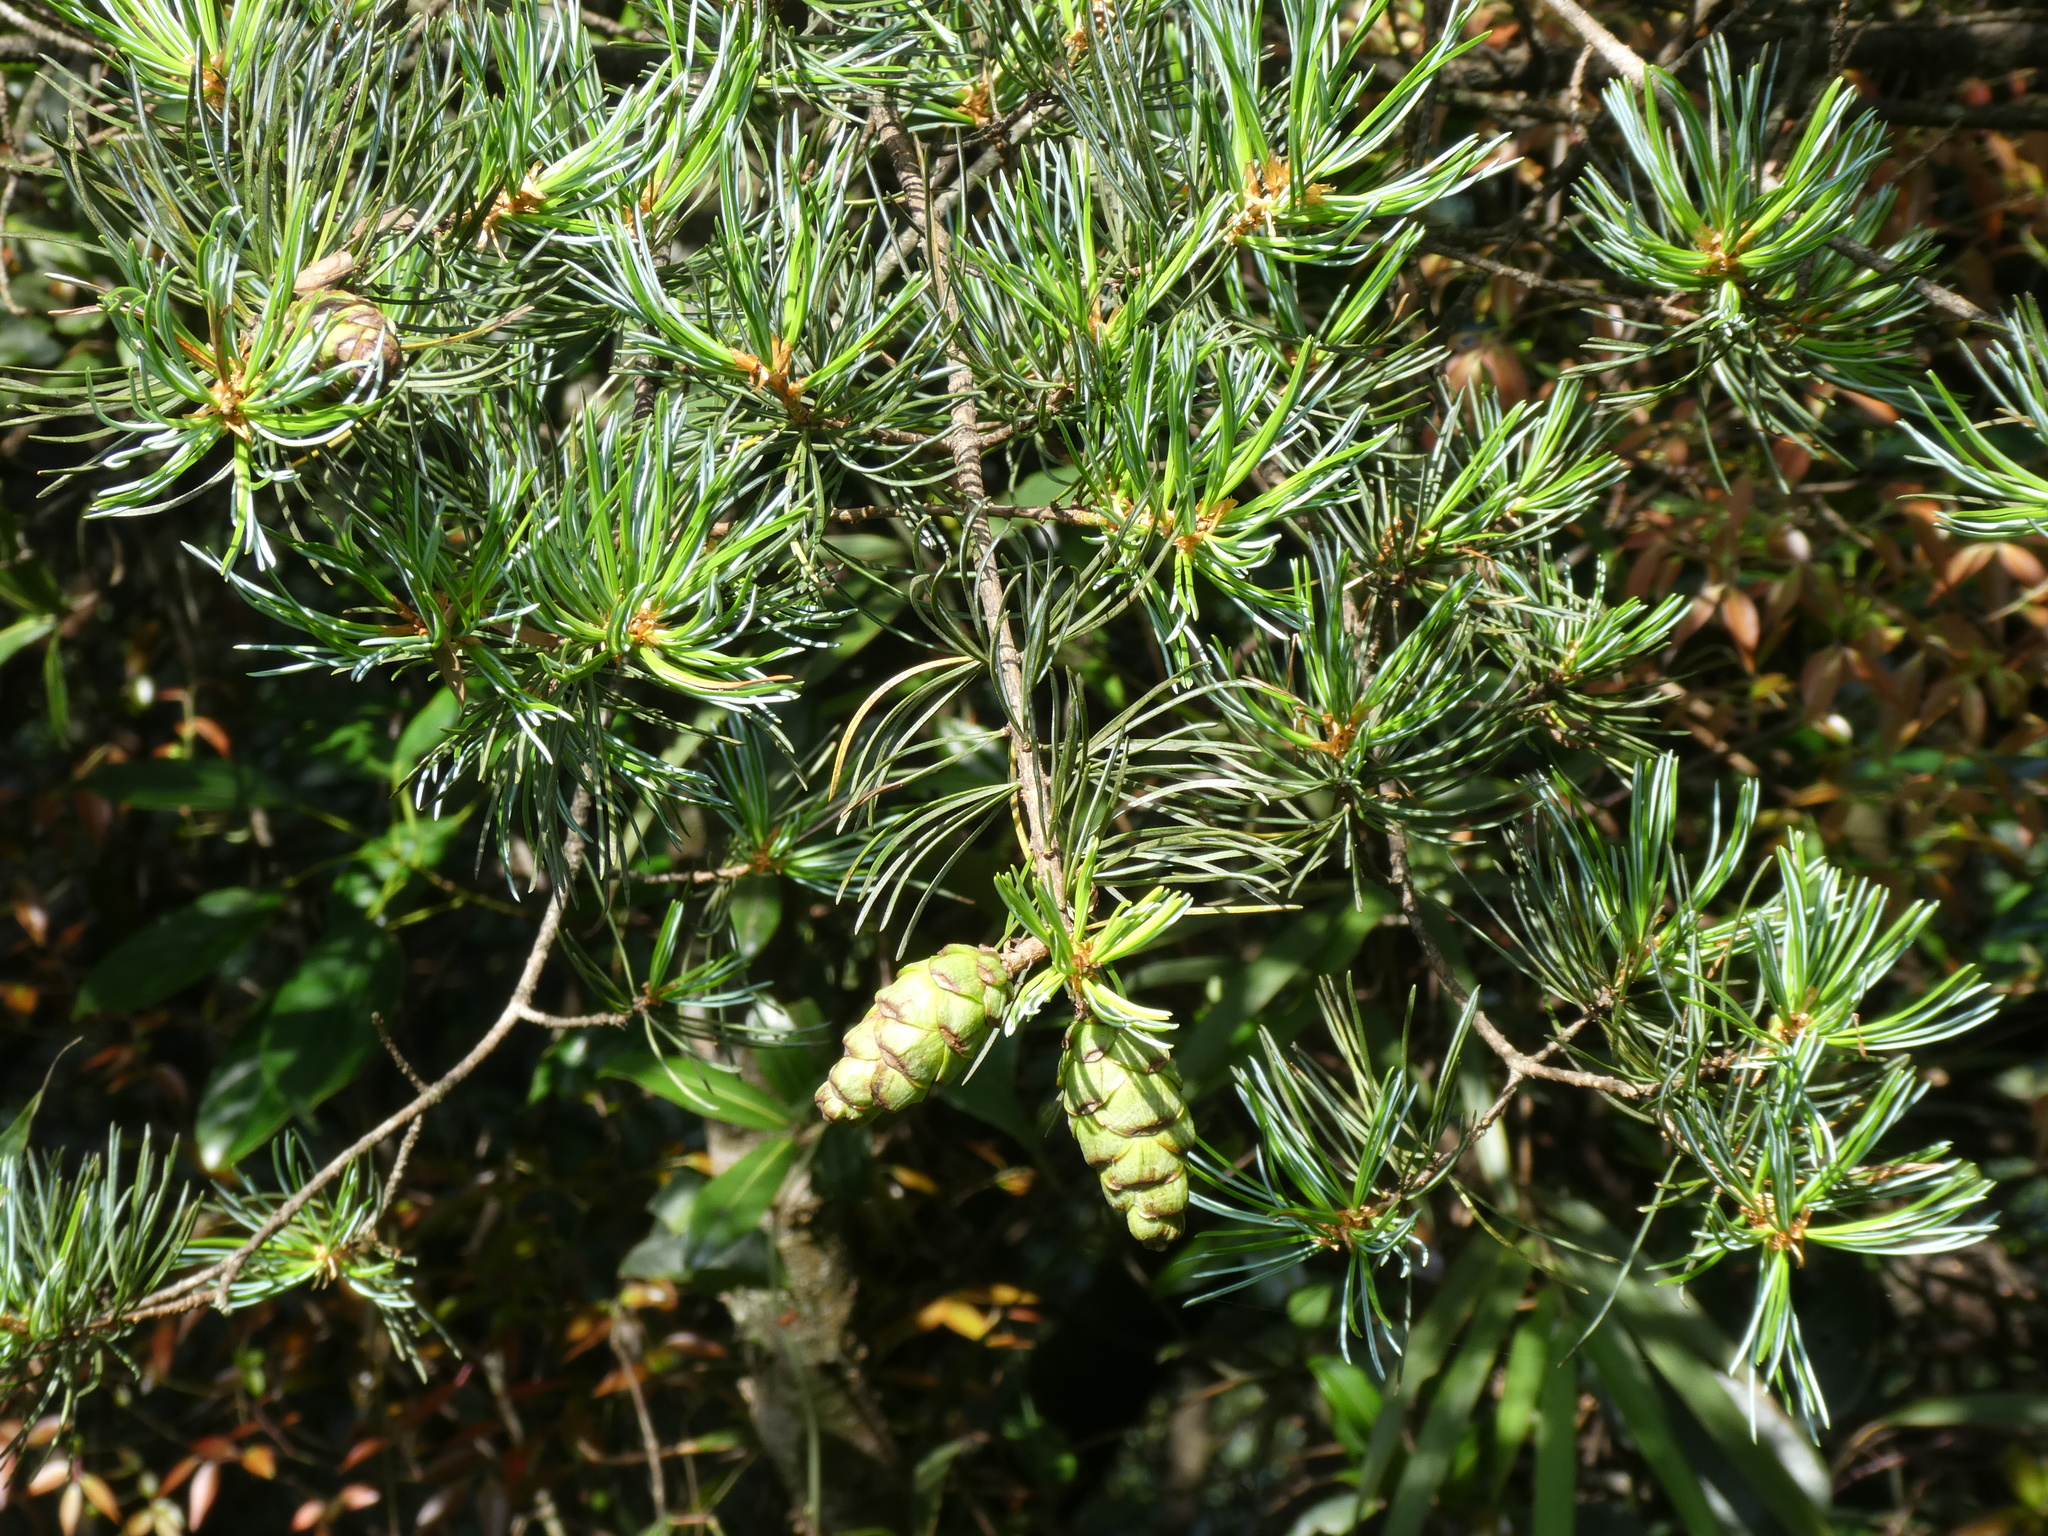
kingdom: Plantae
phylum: Tracheophyta
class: Pinopsida
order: Pinales
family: Pinaceae
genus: Pinus
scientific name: Pinus fenzeliana
